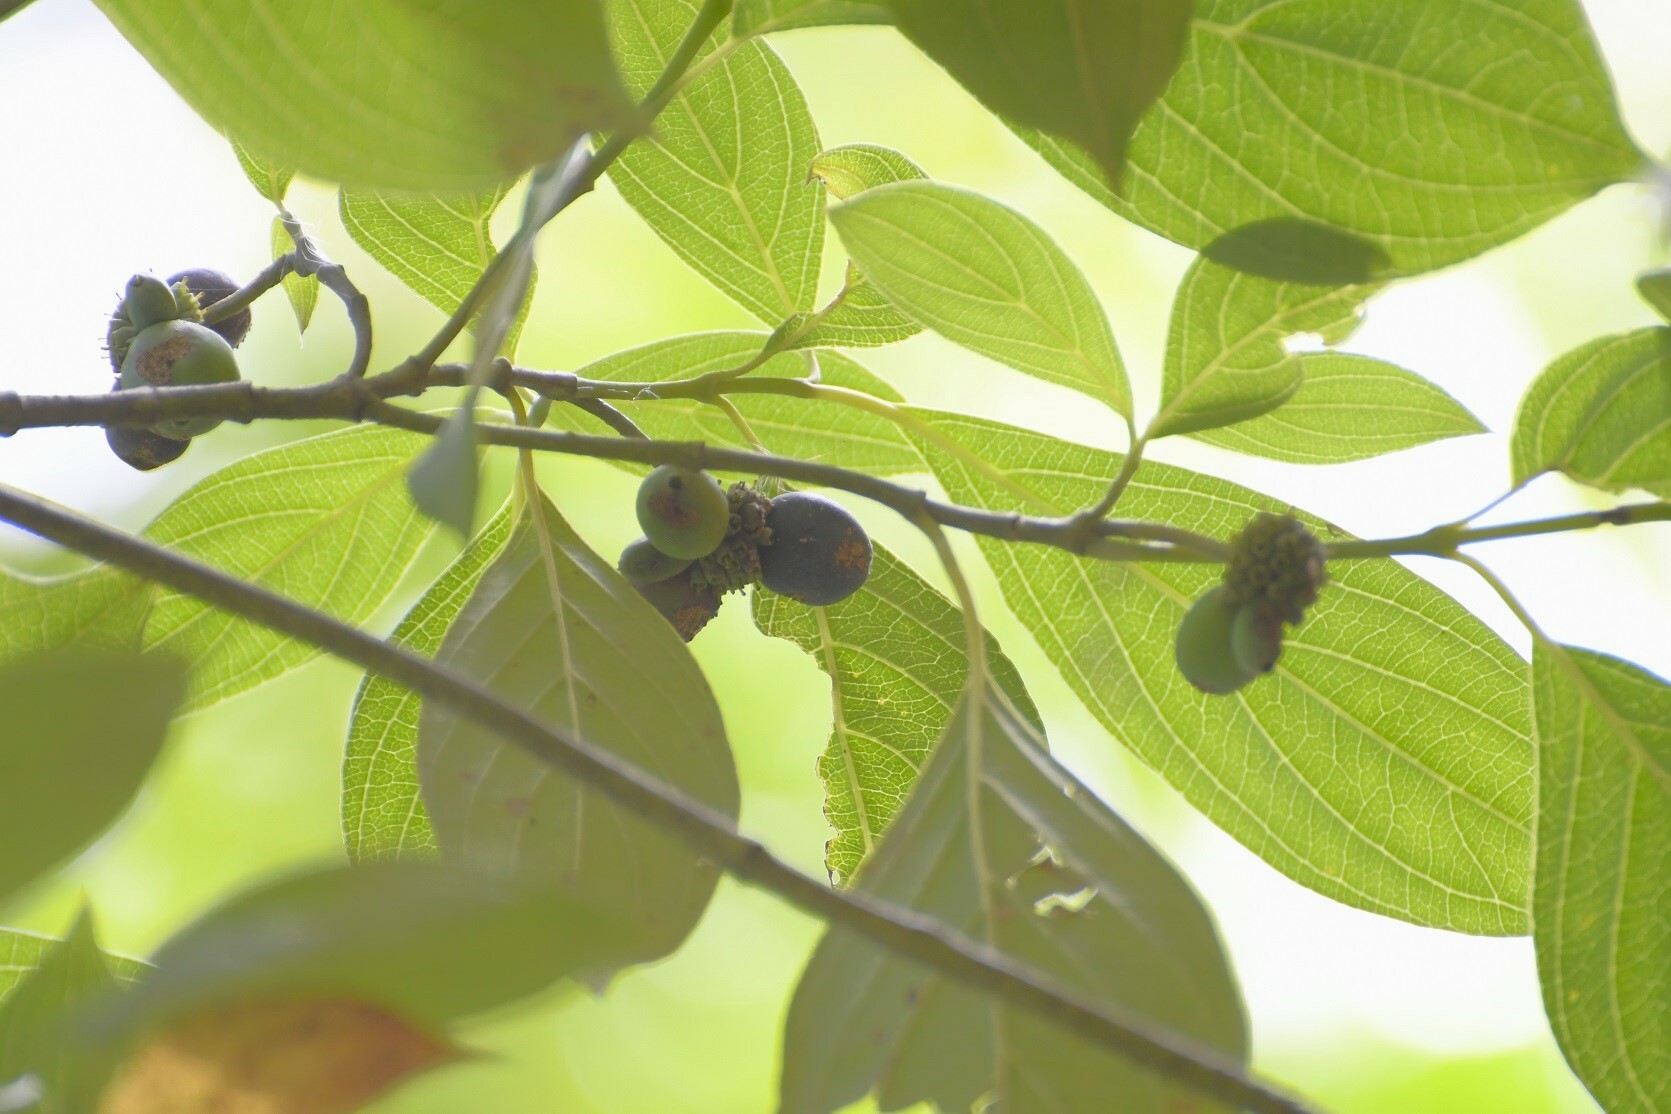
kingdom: Plantae
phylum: Tracheophyta
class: Magnoliopsida
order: Cornales
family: Cornaceae
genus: Cornus
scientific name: Cornus disciflora
